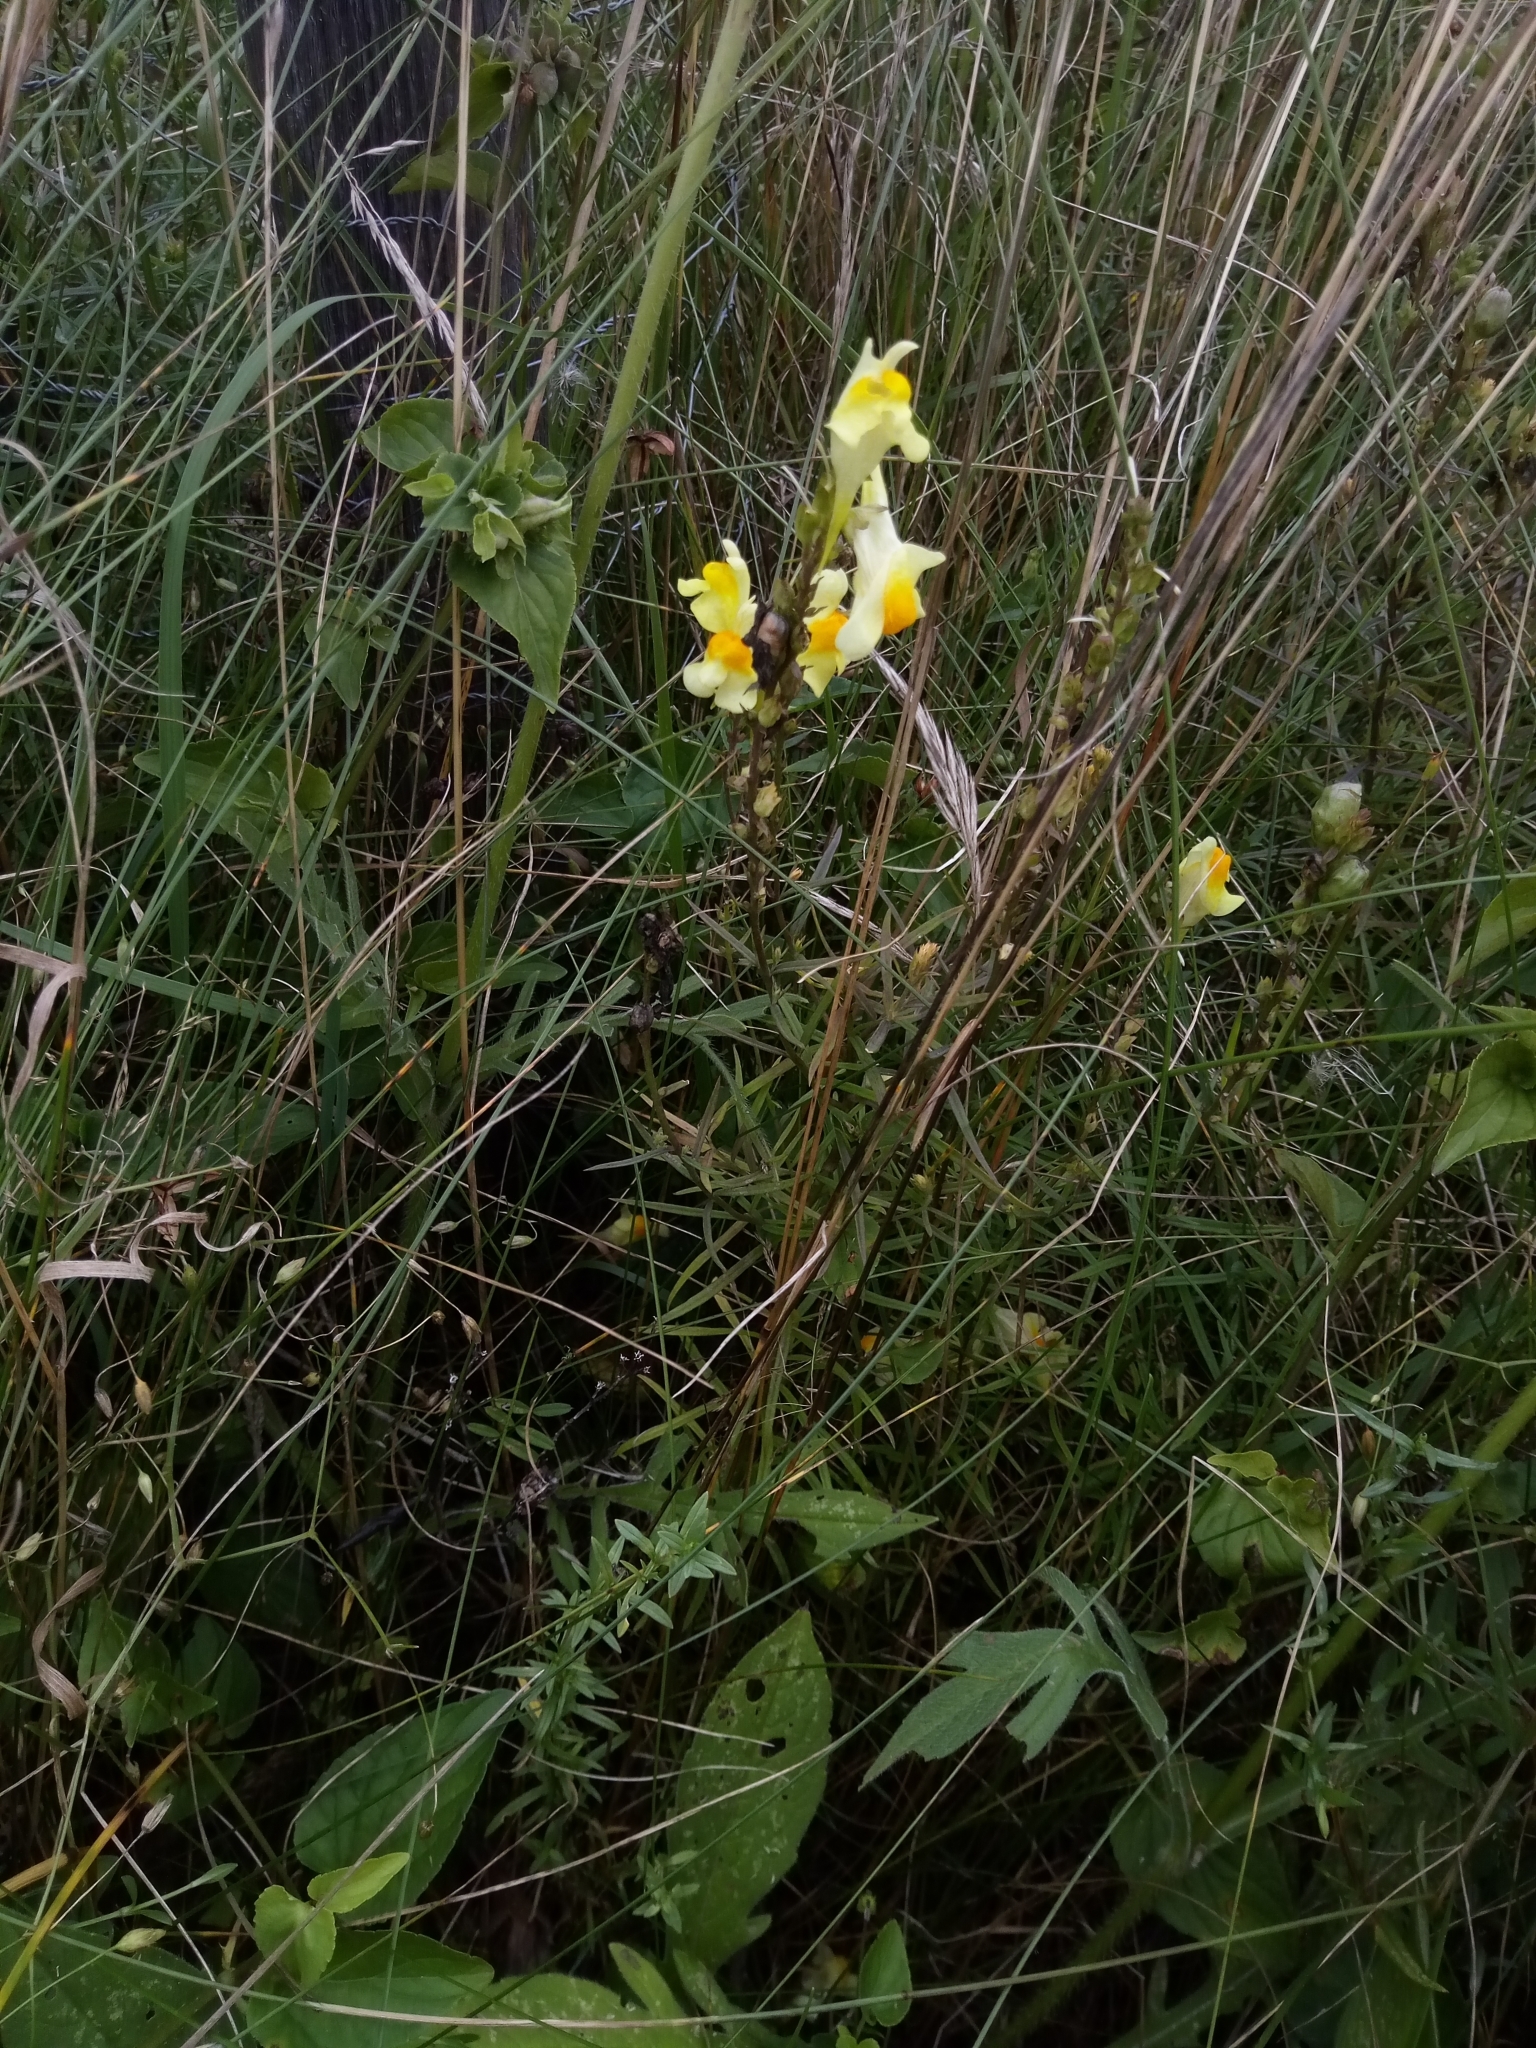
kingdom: Plantae
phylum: Tracheophyta
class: Magnoliopsida
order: Lamiales
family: Plantaginaceae
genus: Linaria
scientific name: Linaria vulgaris
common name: Butter and eggs
